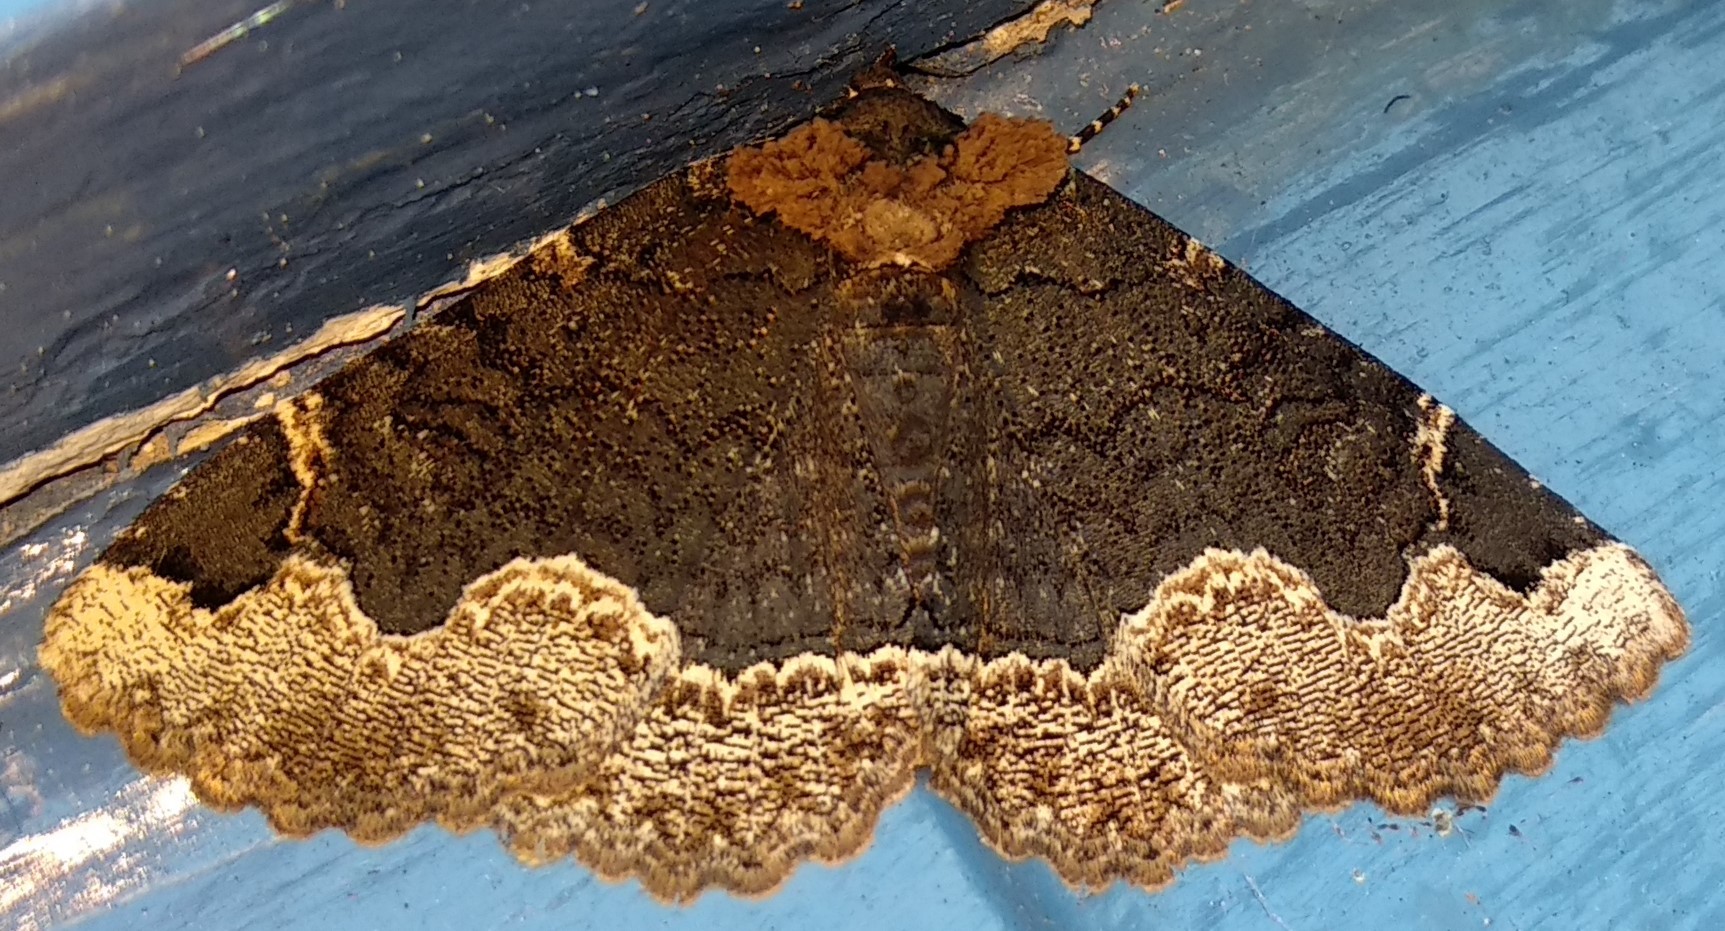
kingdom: Animalia
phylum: Arthropoda
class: Insecta
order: Lepidoptera
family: Erebidae
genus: Zale
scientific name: Zale horrida
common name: Horrid zale moth
